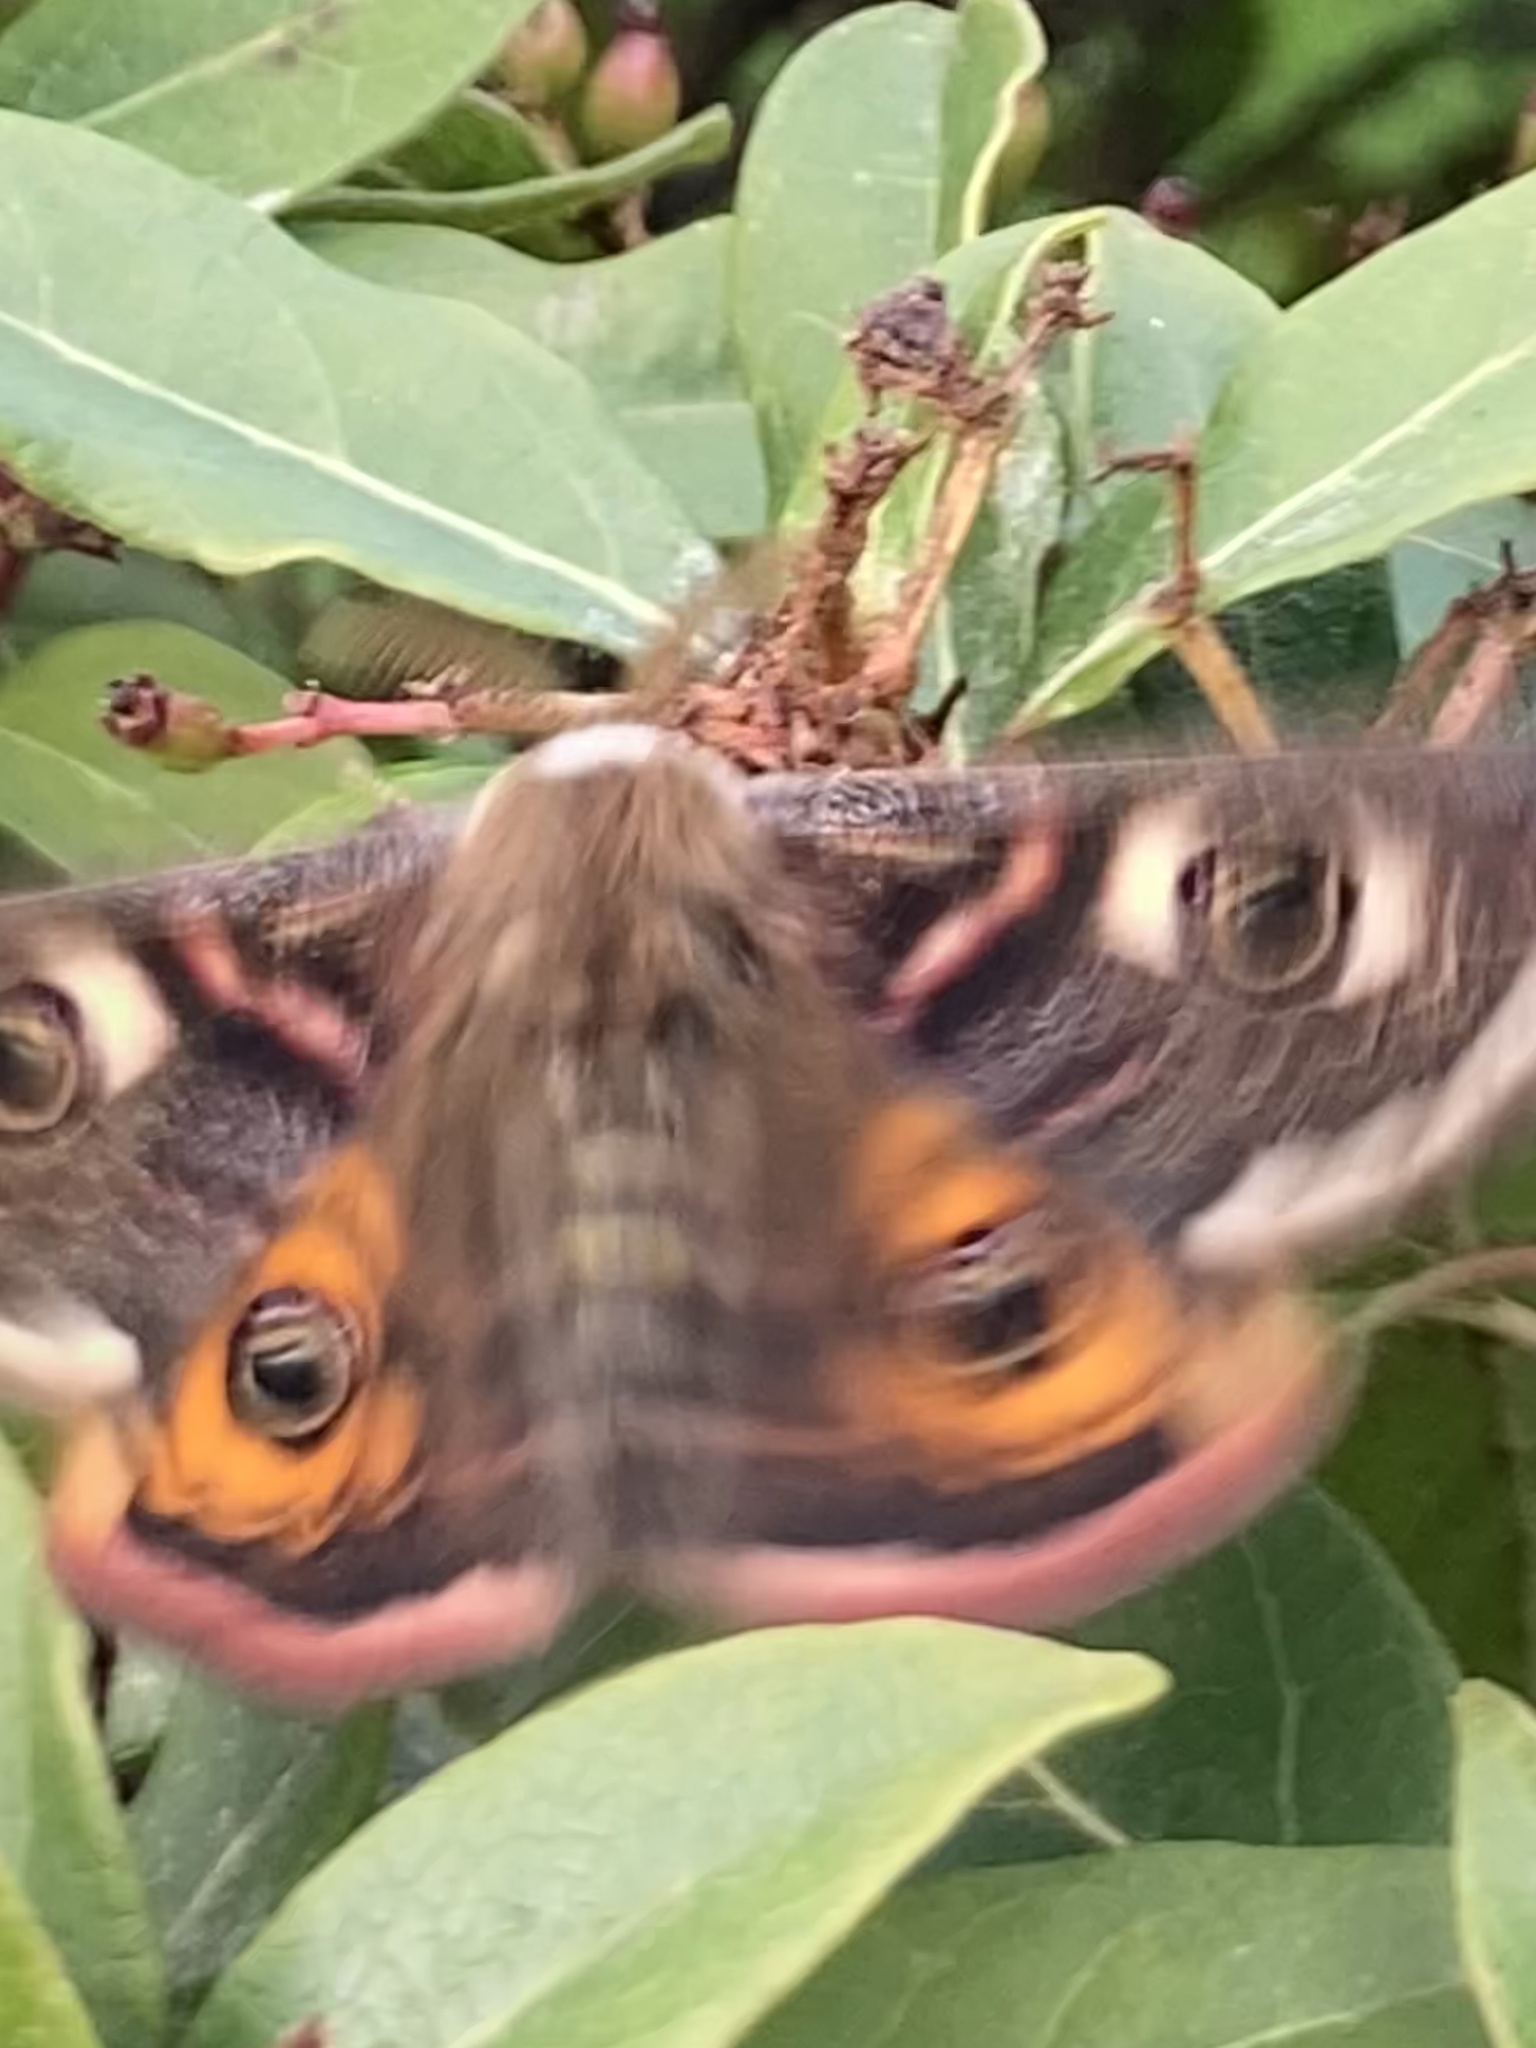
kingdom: Animalia
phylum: Arthropoda
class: Insecta
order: Lepidoptera
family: Saturniidae
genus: Saturnia
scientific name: Saturnia pavonia
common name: Emperor moth
